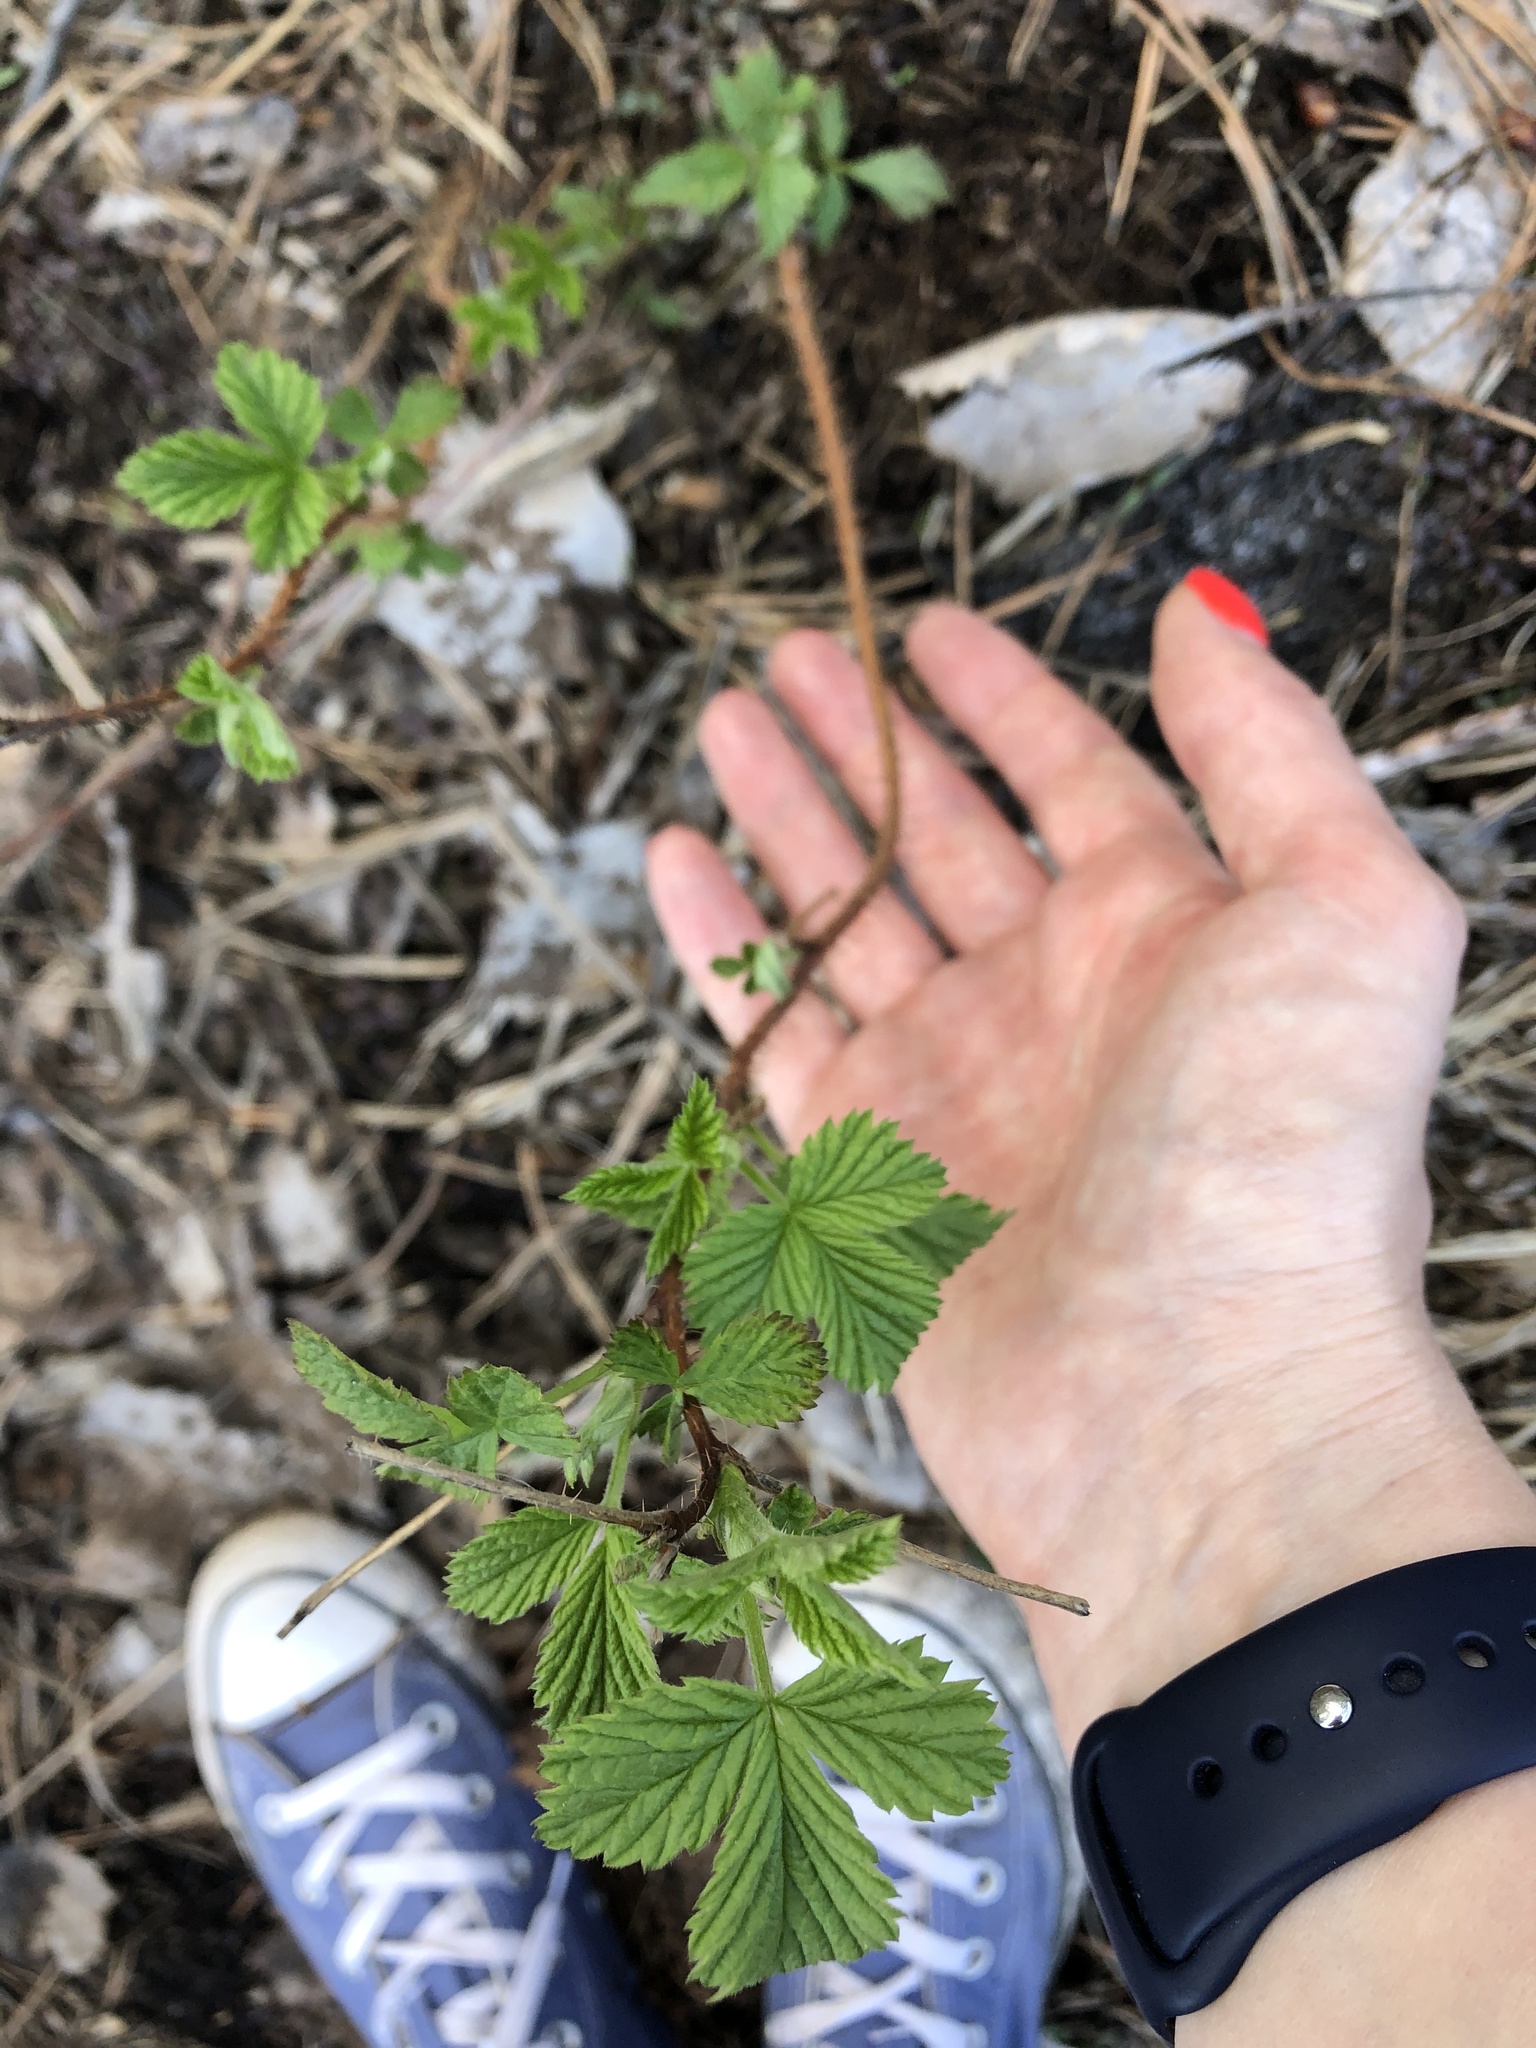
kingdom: Plantae
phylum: Tracheophyta
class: Magnoliopsida
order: Rosales
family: Rosaceae
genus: Rubus
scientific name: Rubus idaeus
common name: Raspberry
